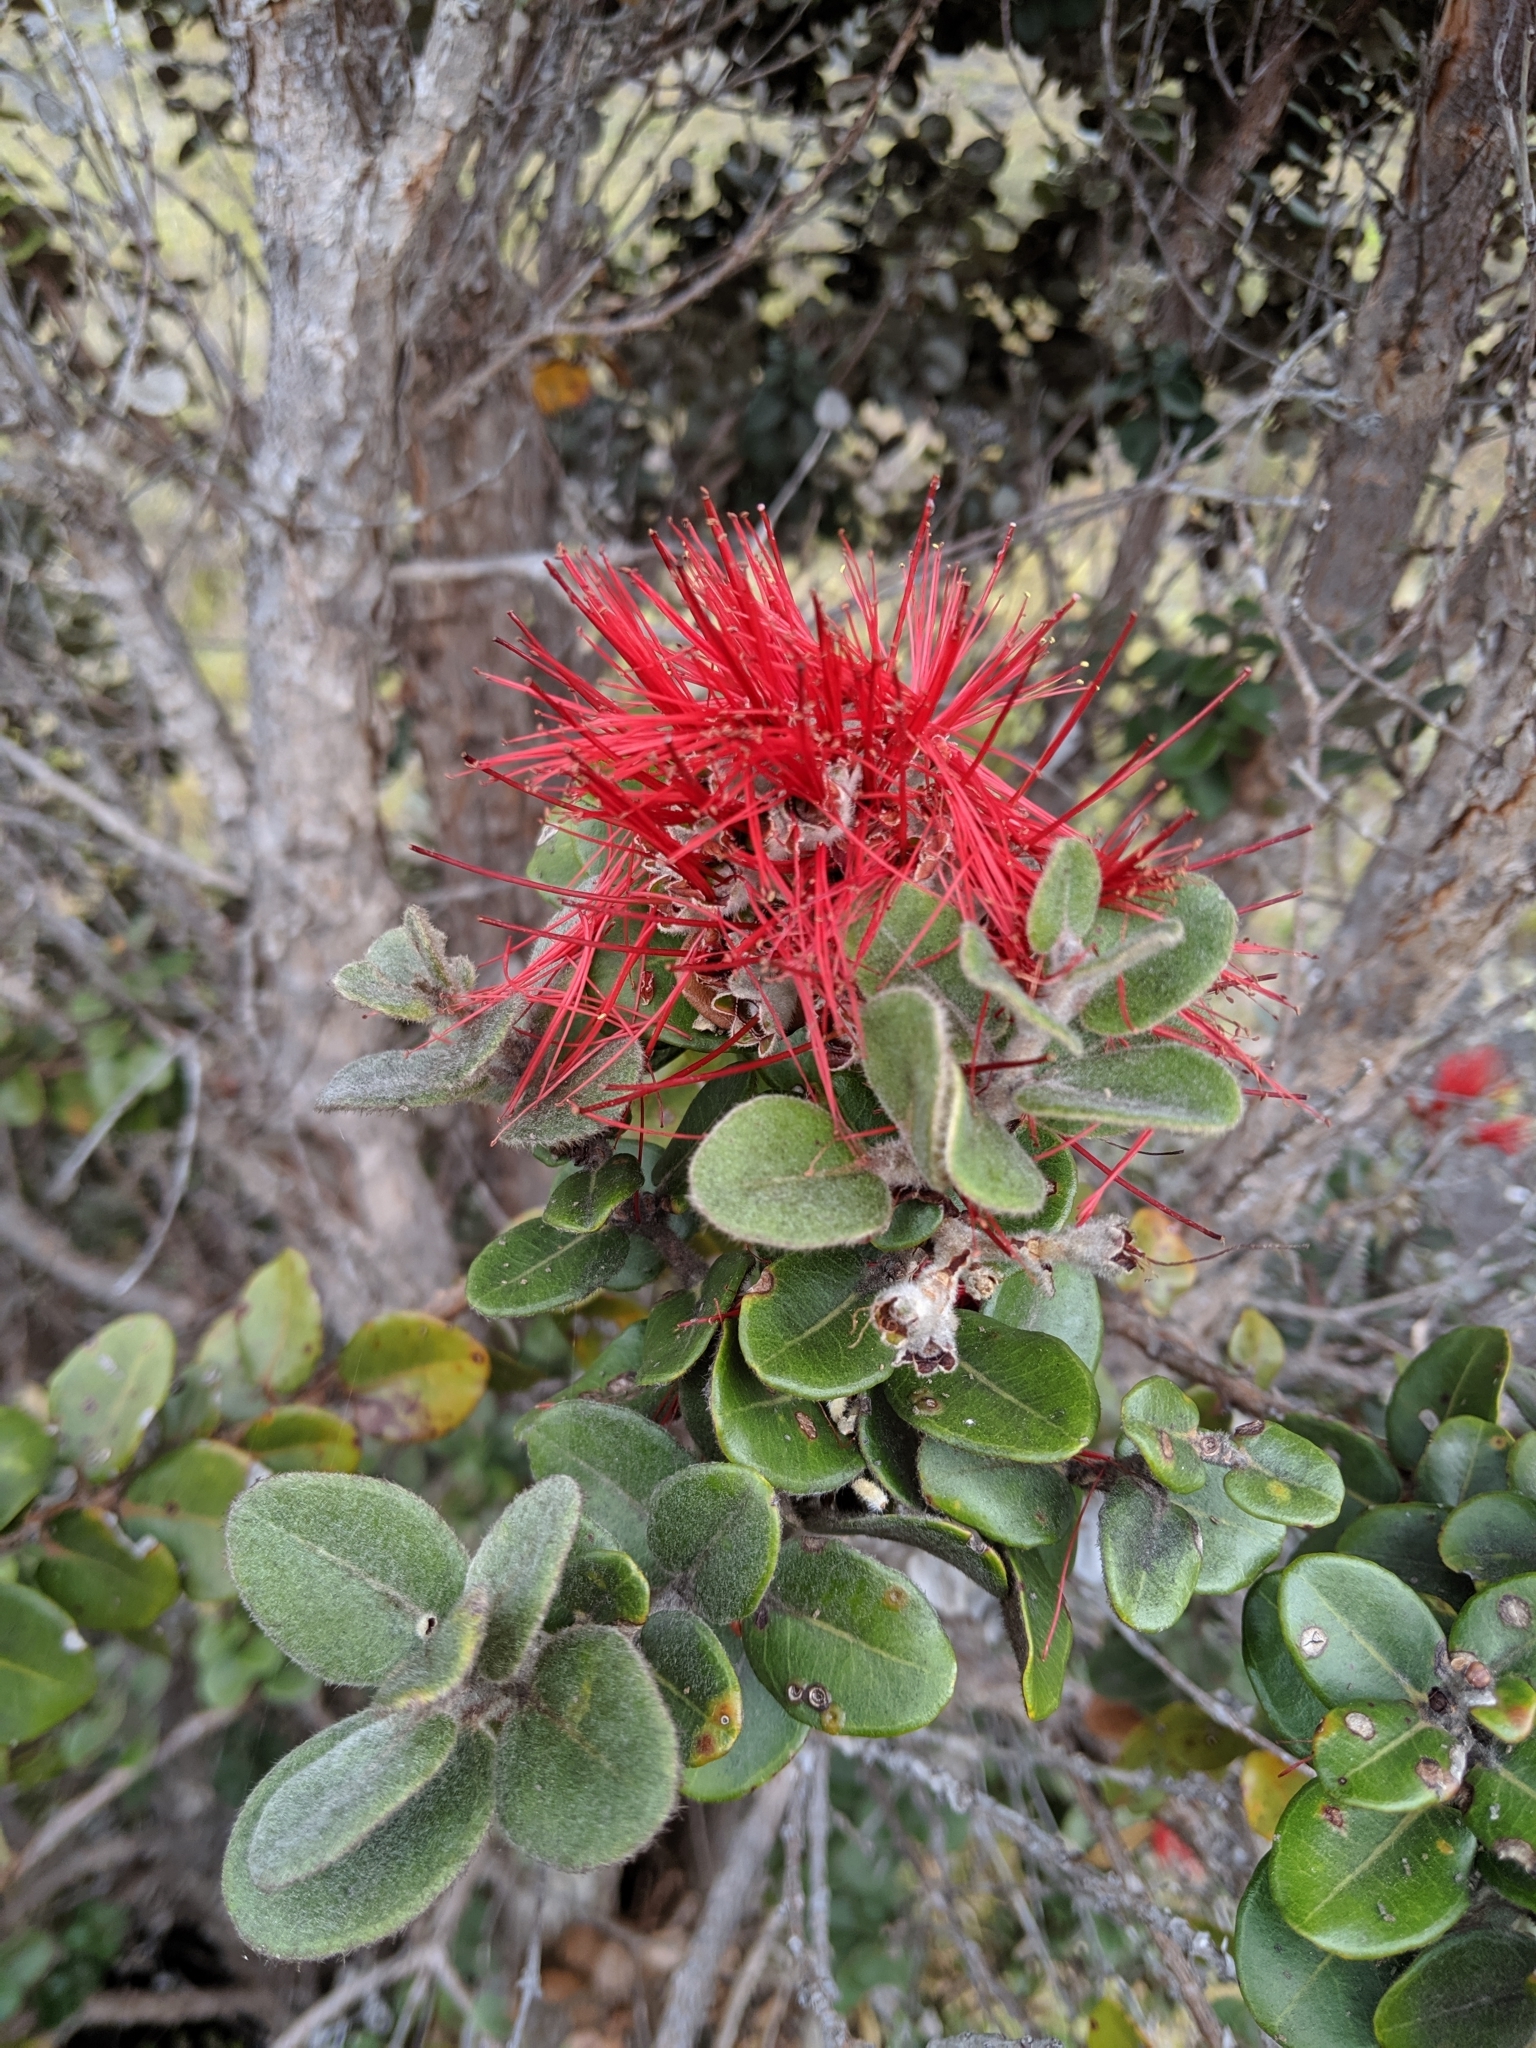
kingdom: Plantae
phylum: Tracheophyta
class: Magnoliopsida
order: Myrtales
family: Myrtaceae
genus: Metrosideros
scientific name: Metrosideros polymorpha
